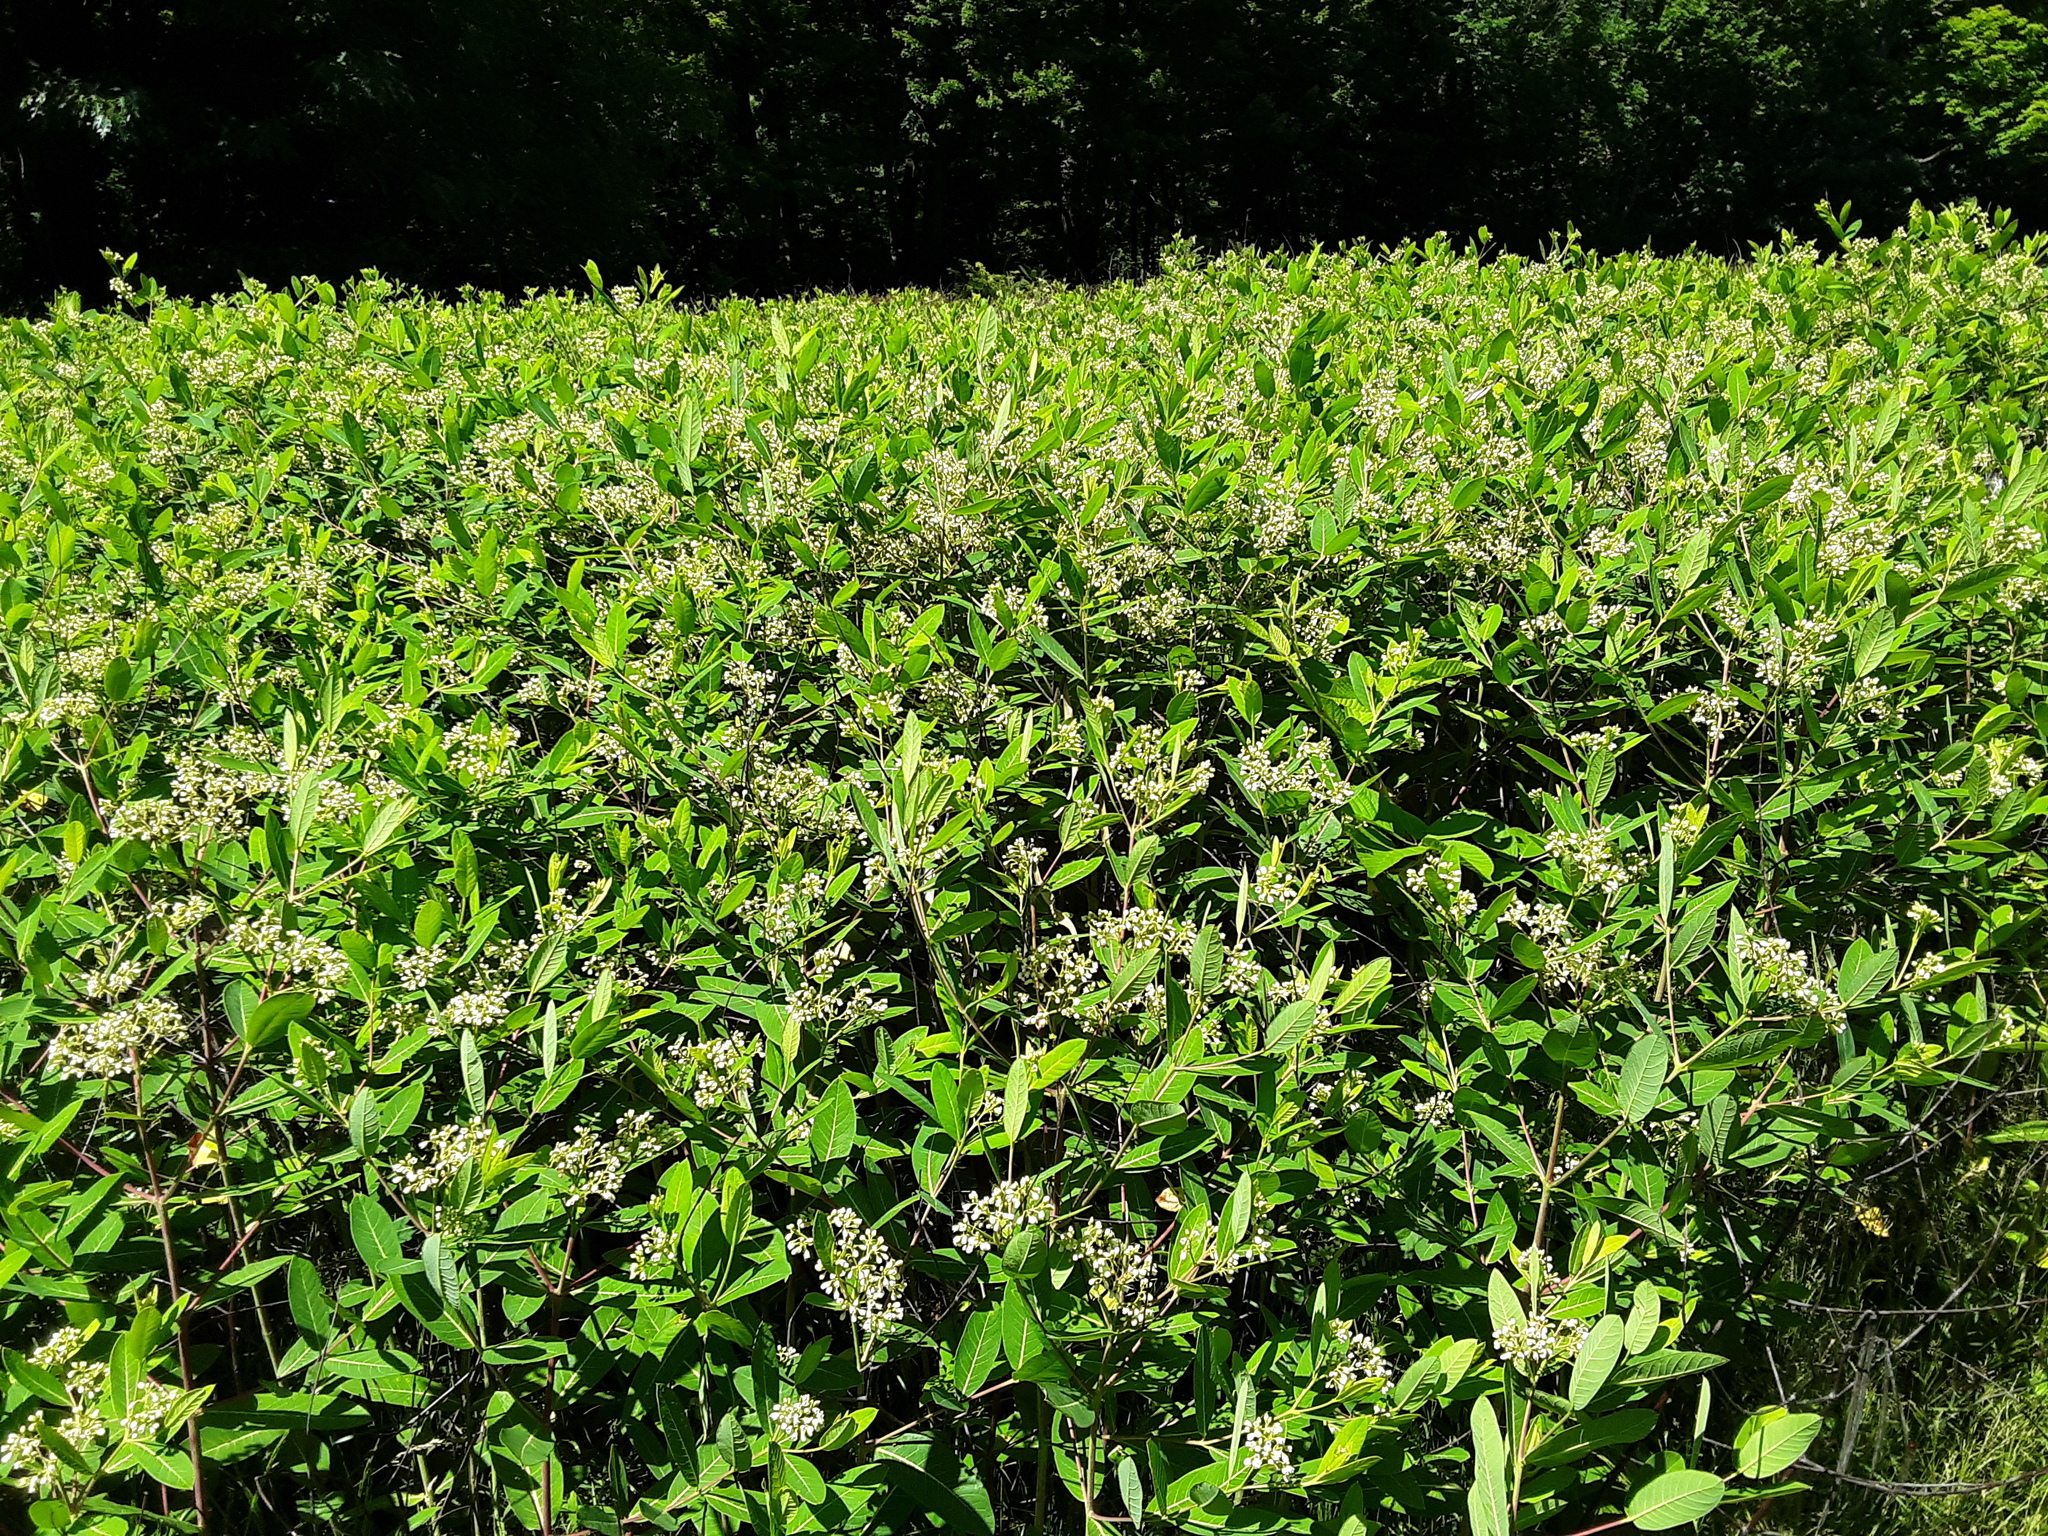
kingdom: Plantae
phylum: Tracheophyta
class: Magnoliopsida
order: Gentianales
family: Apocynaceae
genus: Apocynum
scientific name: Apocynum cannabinum
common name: Hemp dogbane
